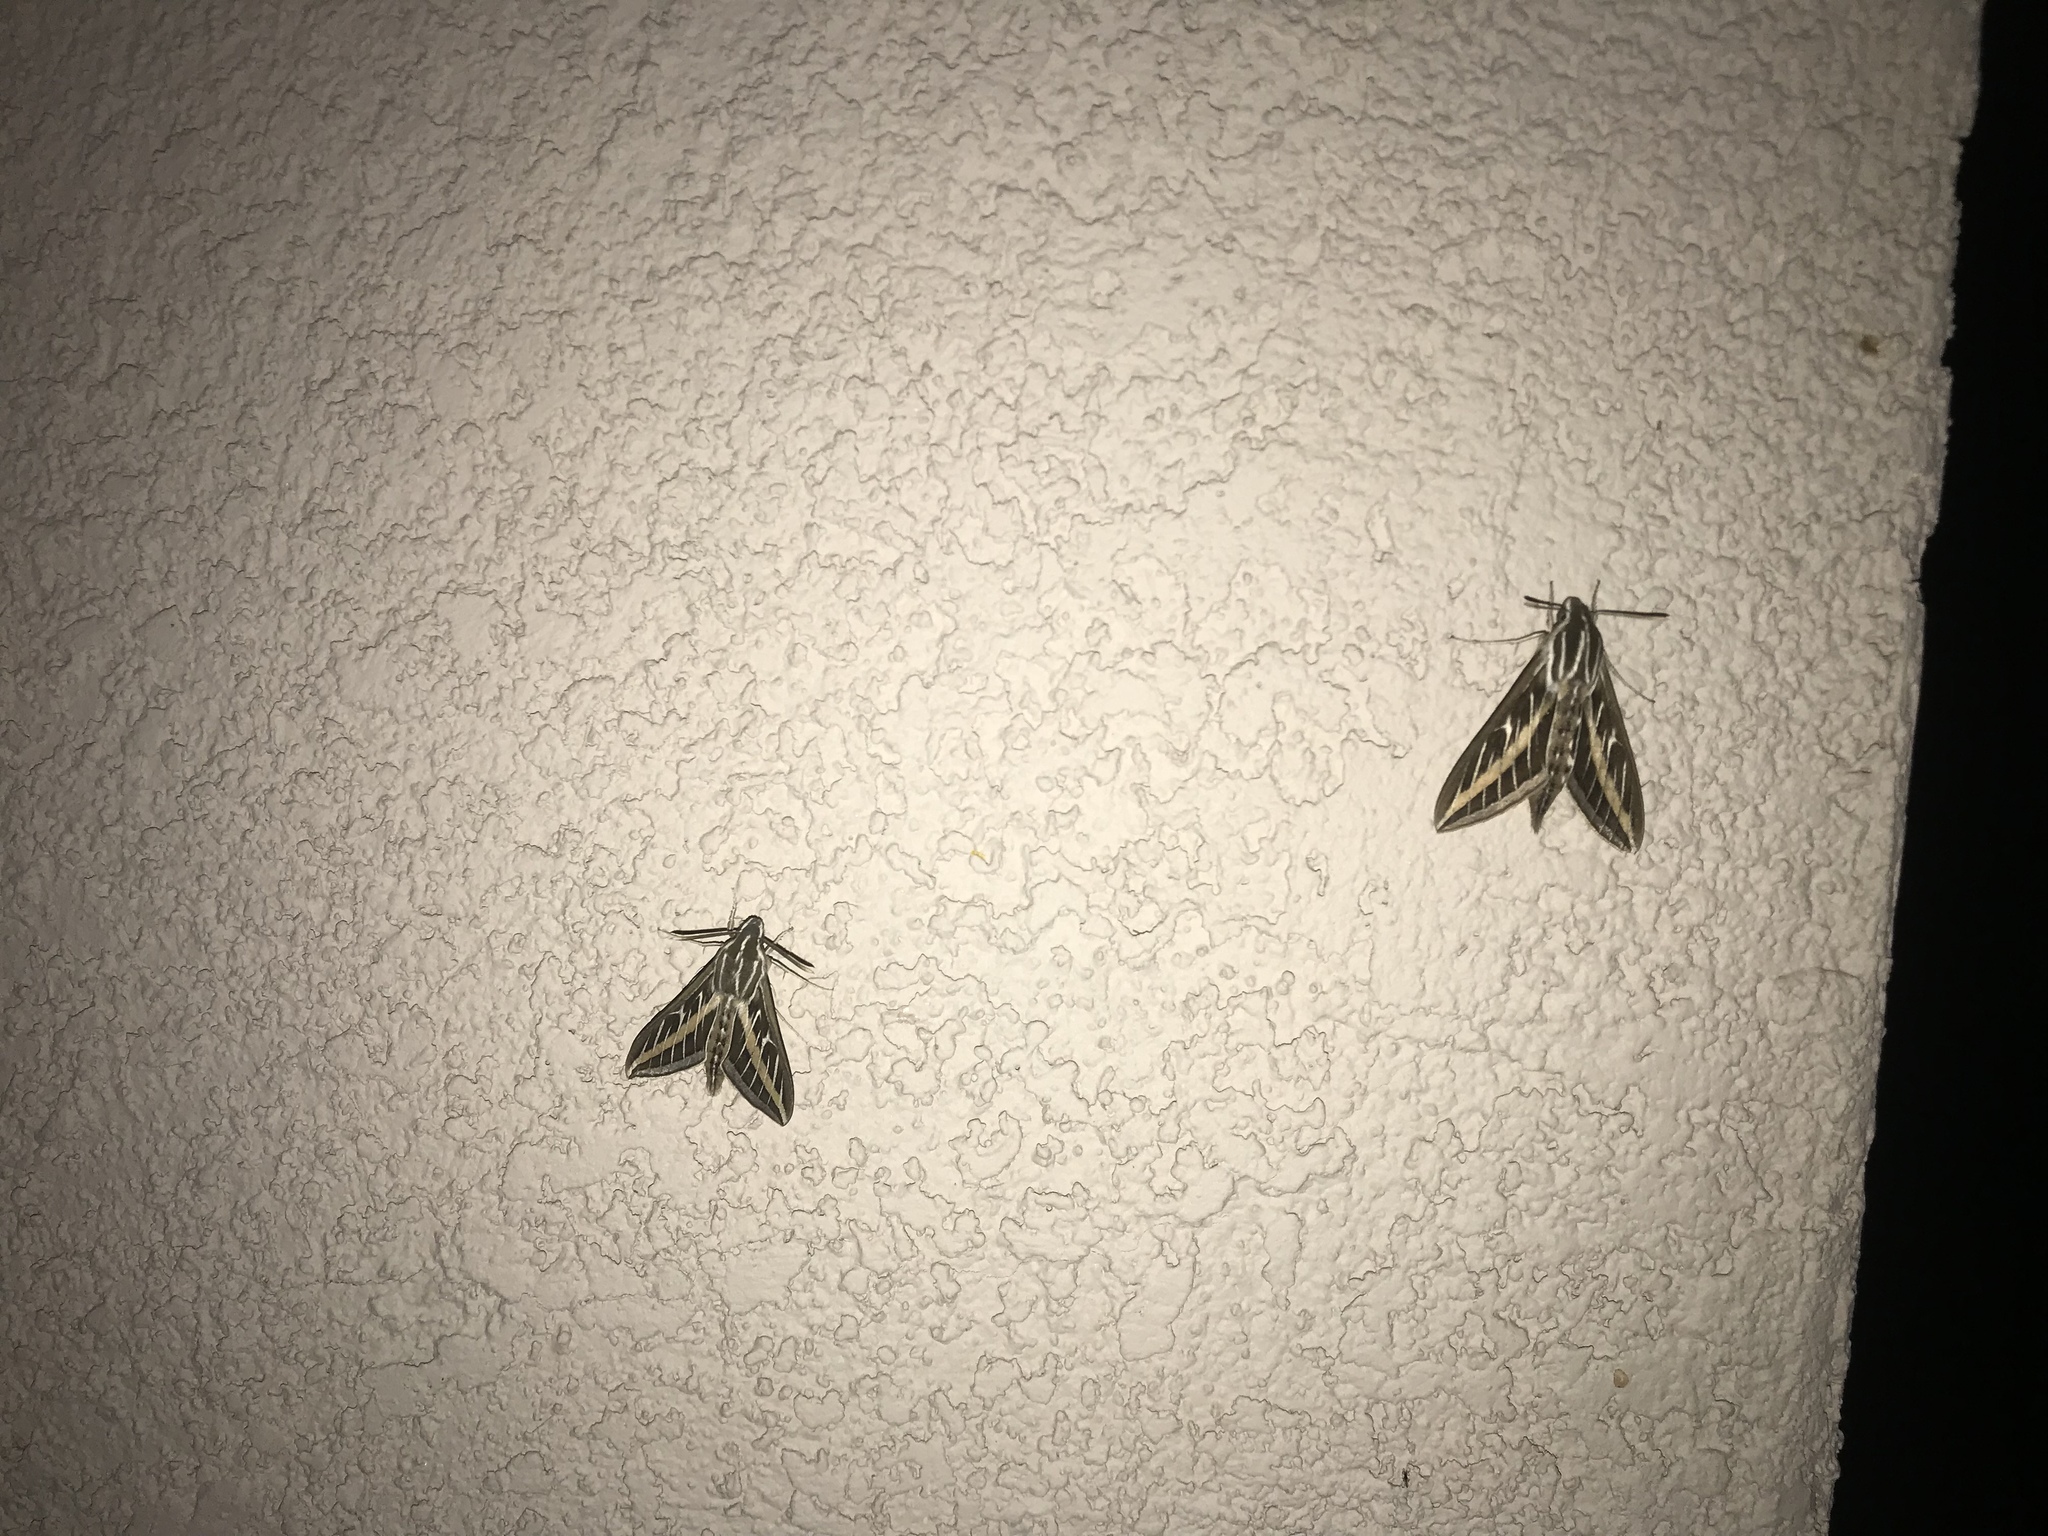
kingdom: Animalia
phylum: Arthropoda
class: Insecta
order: Lepidoptera
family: Sphingidae
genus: Hyles
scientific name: Hyles lineata
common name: White-lined sphinx
